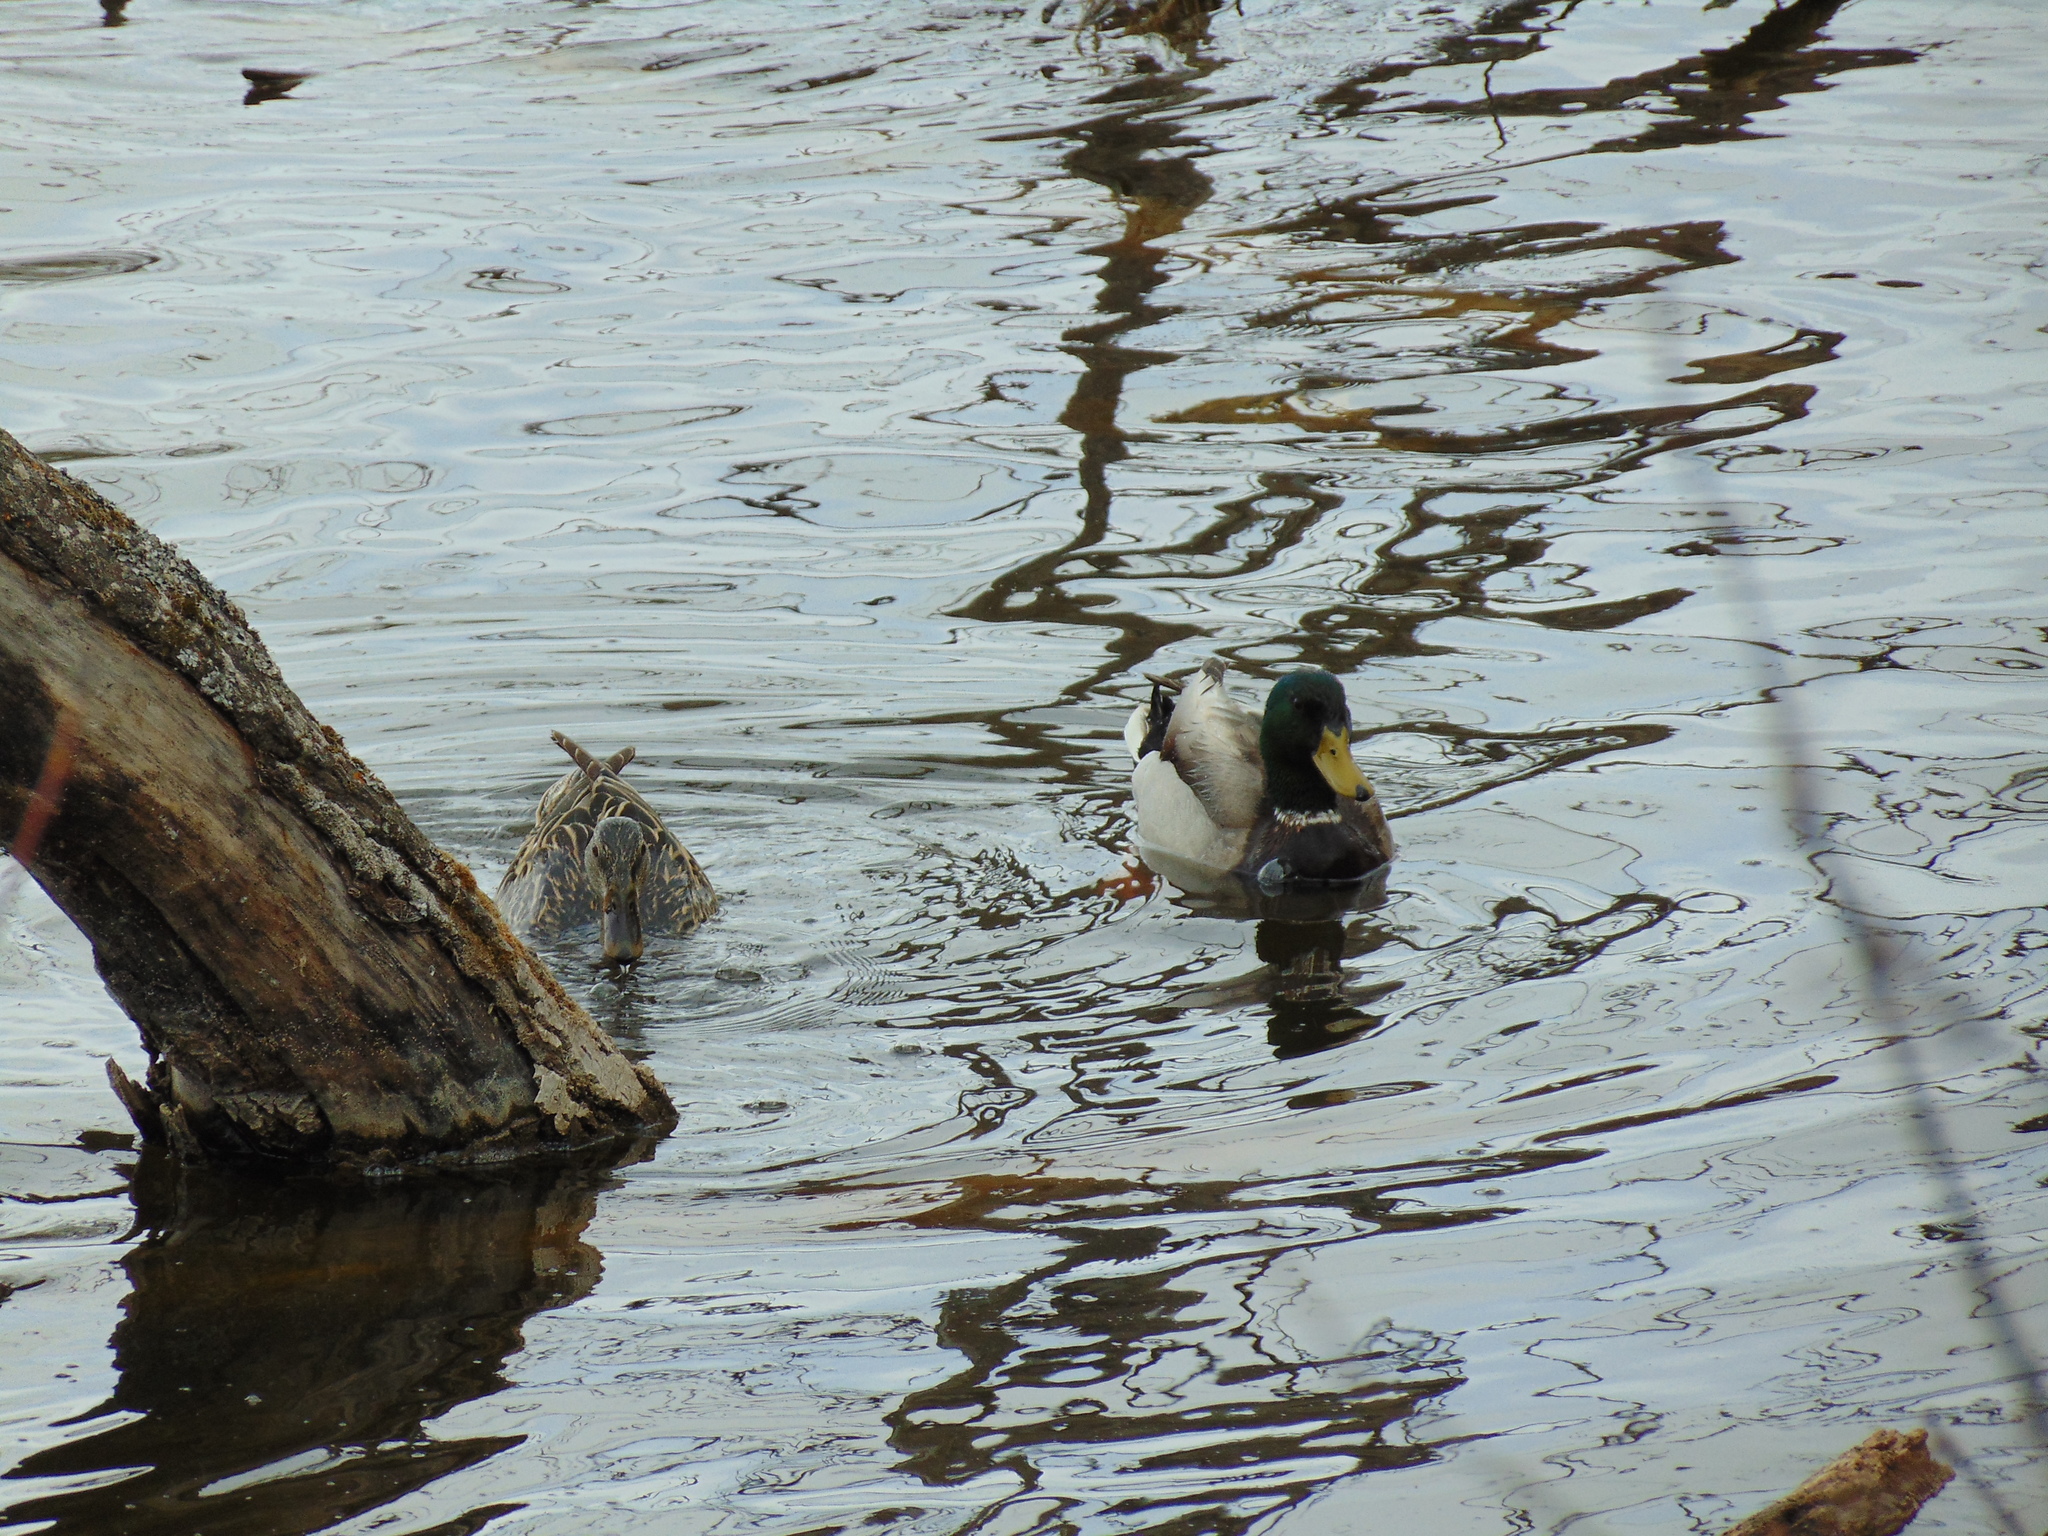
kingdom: Animalia
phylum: Chordata
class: Aves
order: Anseriformes
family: Anatidae
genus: Anas
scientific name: Anas platyrhynchos
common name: Mallard
